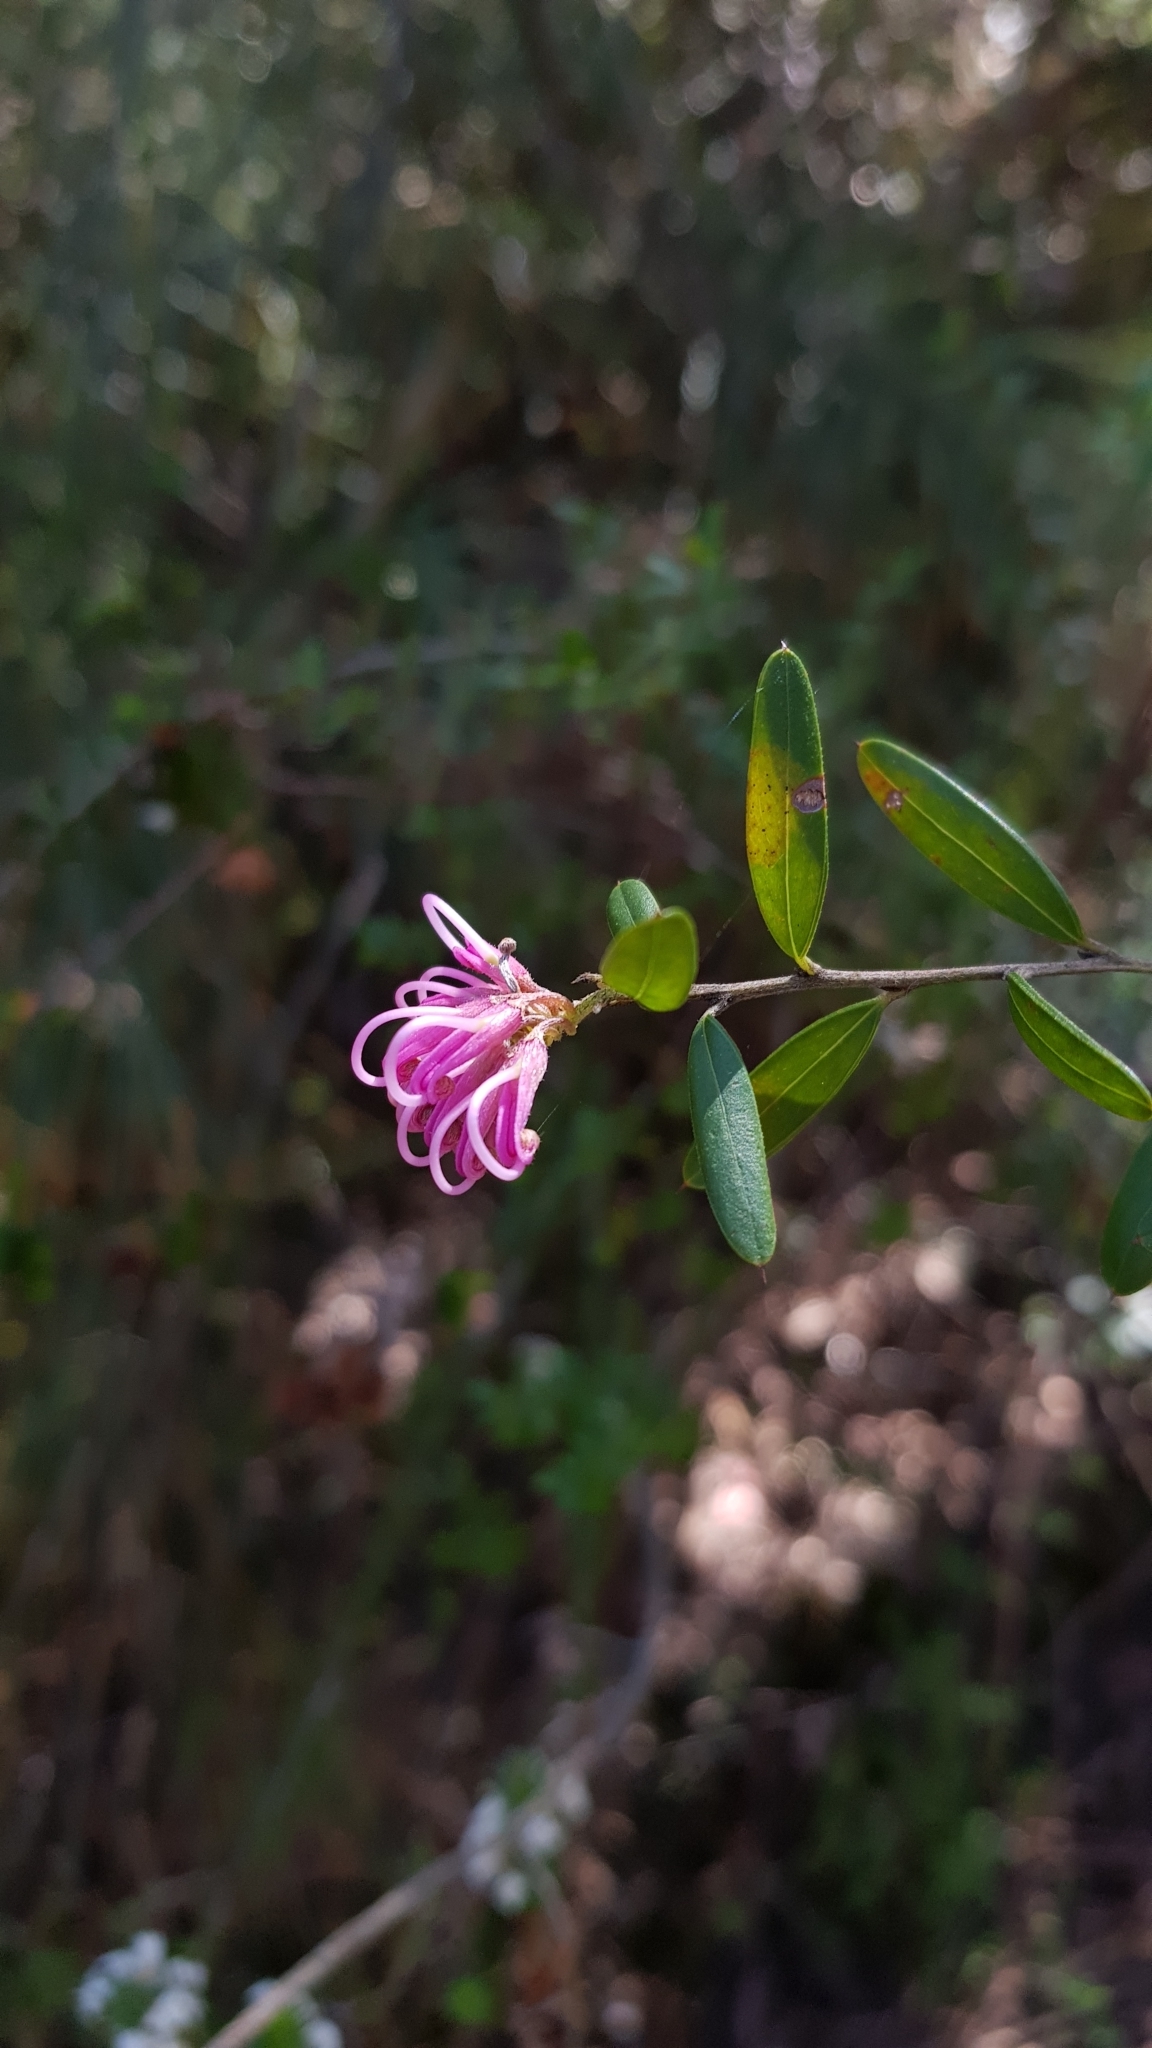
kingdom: Plantae
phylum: Tracheophyta
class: Magnoliopsida
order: Proteales
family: Proteaceae
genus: Grevillea
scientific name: Grevillea sericea
